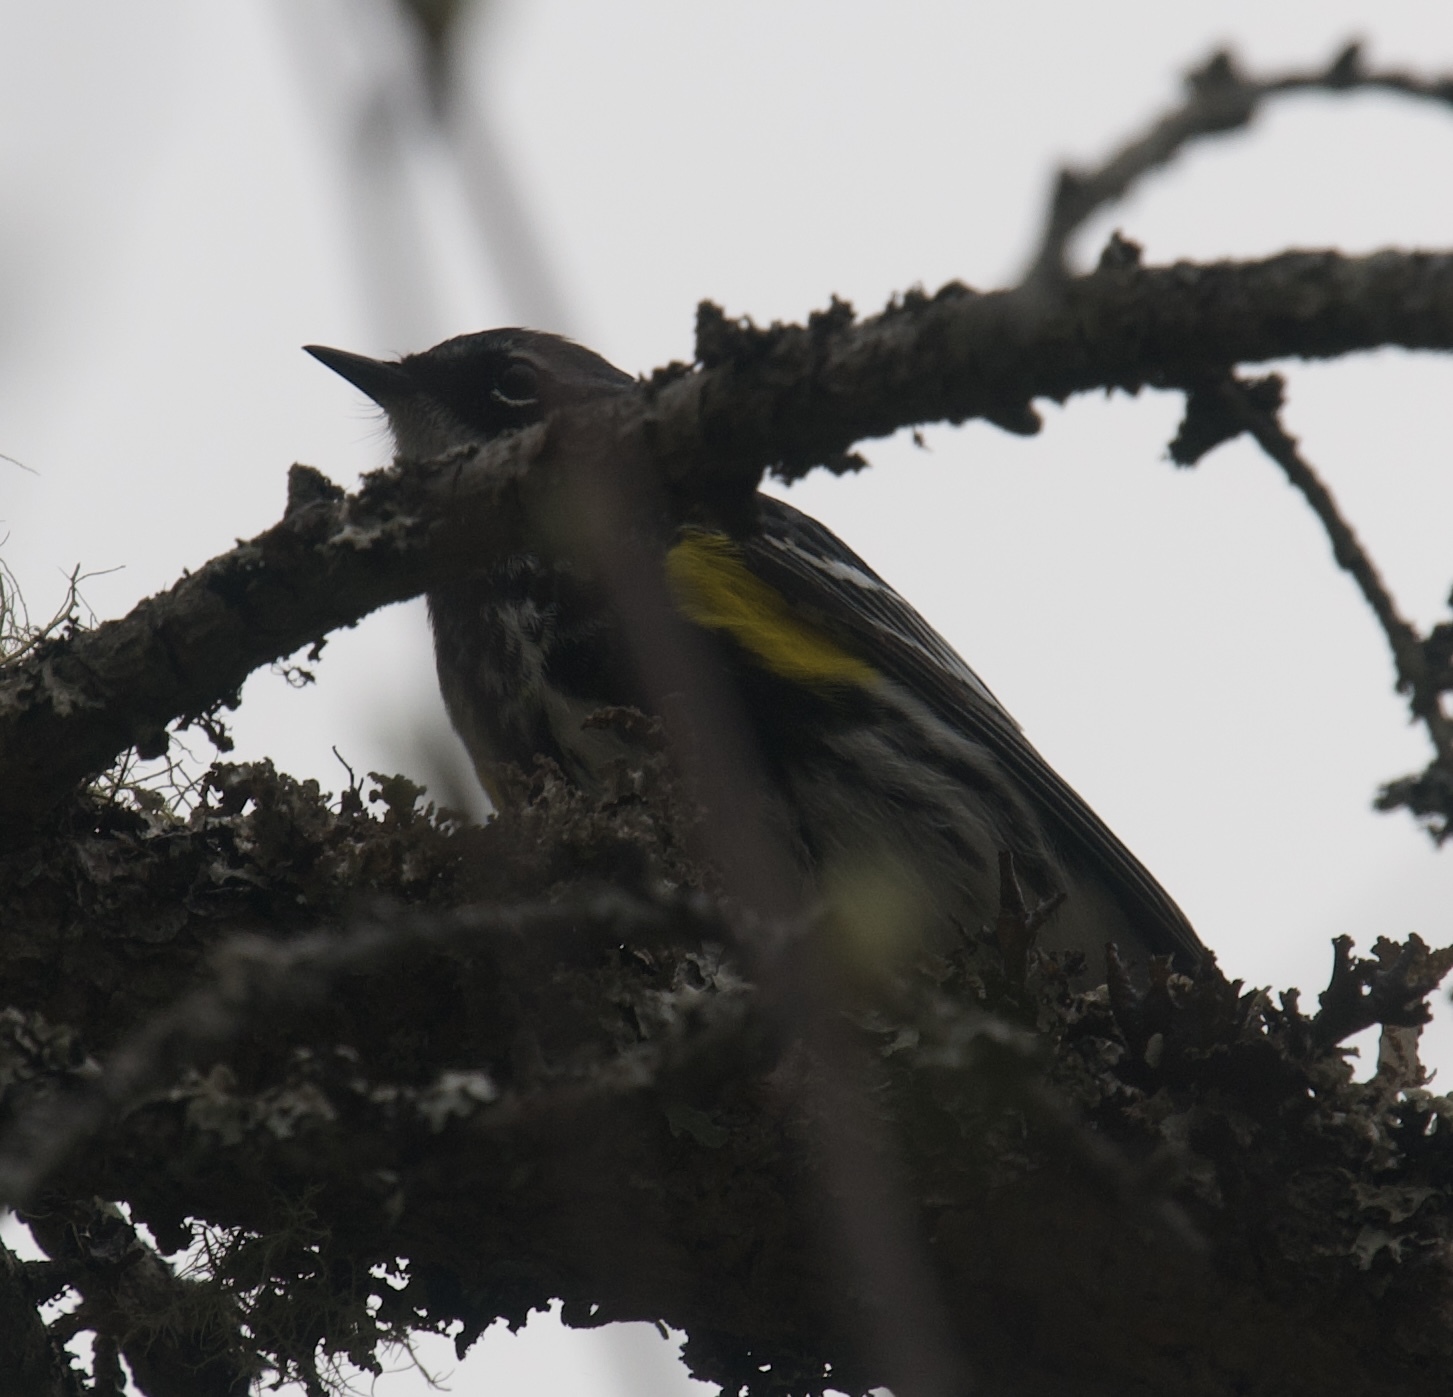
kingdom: Animalia
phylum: Chordata
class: Aves
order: Passeriformes
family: Parulidae
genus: Setophaga
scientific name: Setophaga coronata
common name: Myrtle warbler
